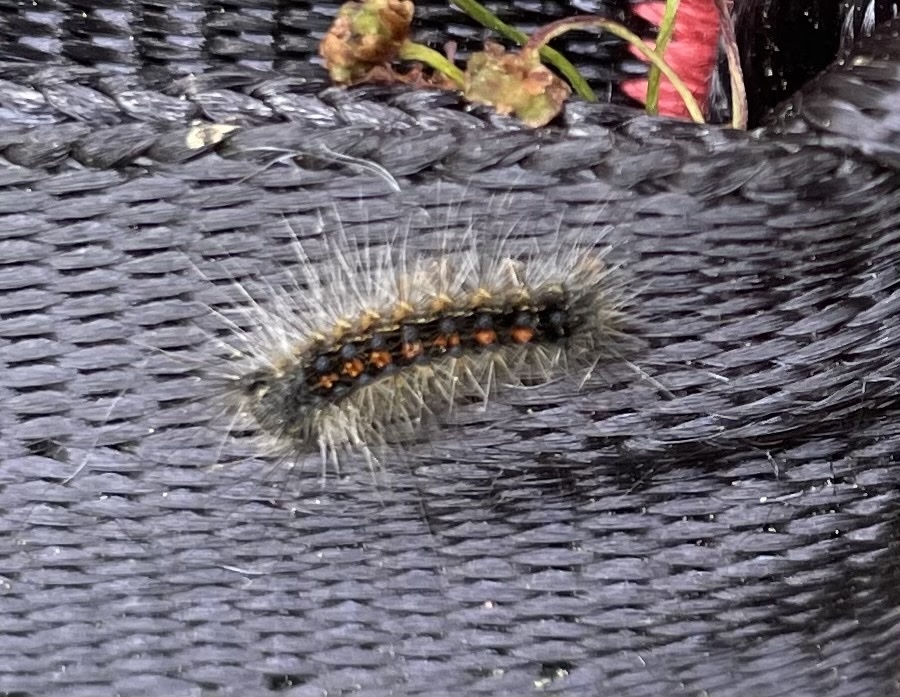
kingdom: Animalia
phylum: Arthropoda
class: Insecta
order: Lepidoptera
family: Erebidae
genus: Lymantria
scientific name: Lymantria dispar
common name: Gypsy moth
